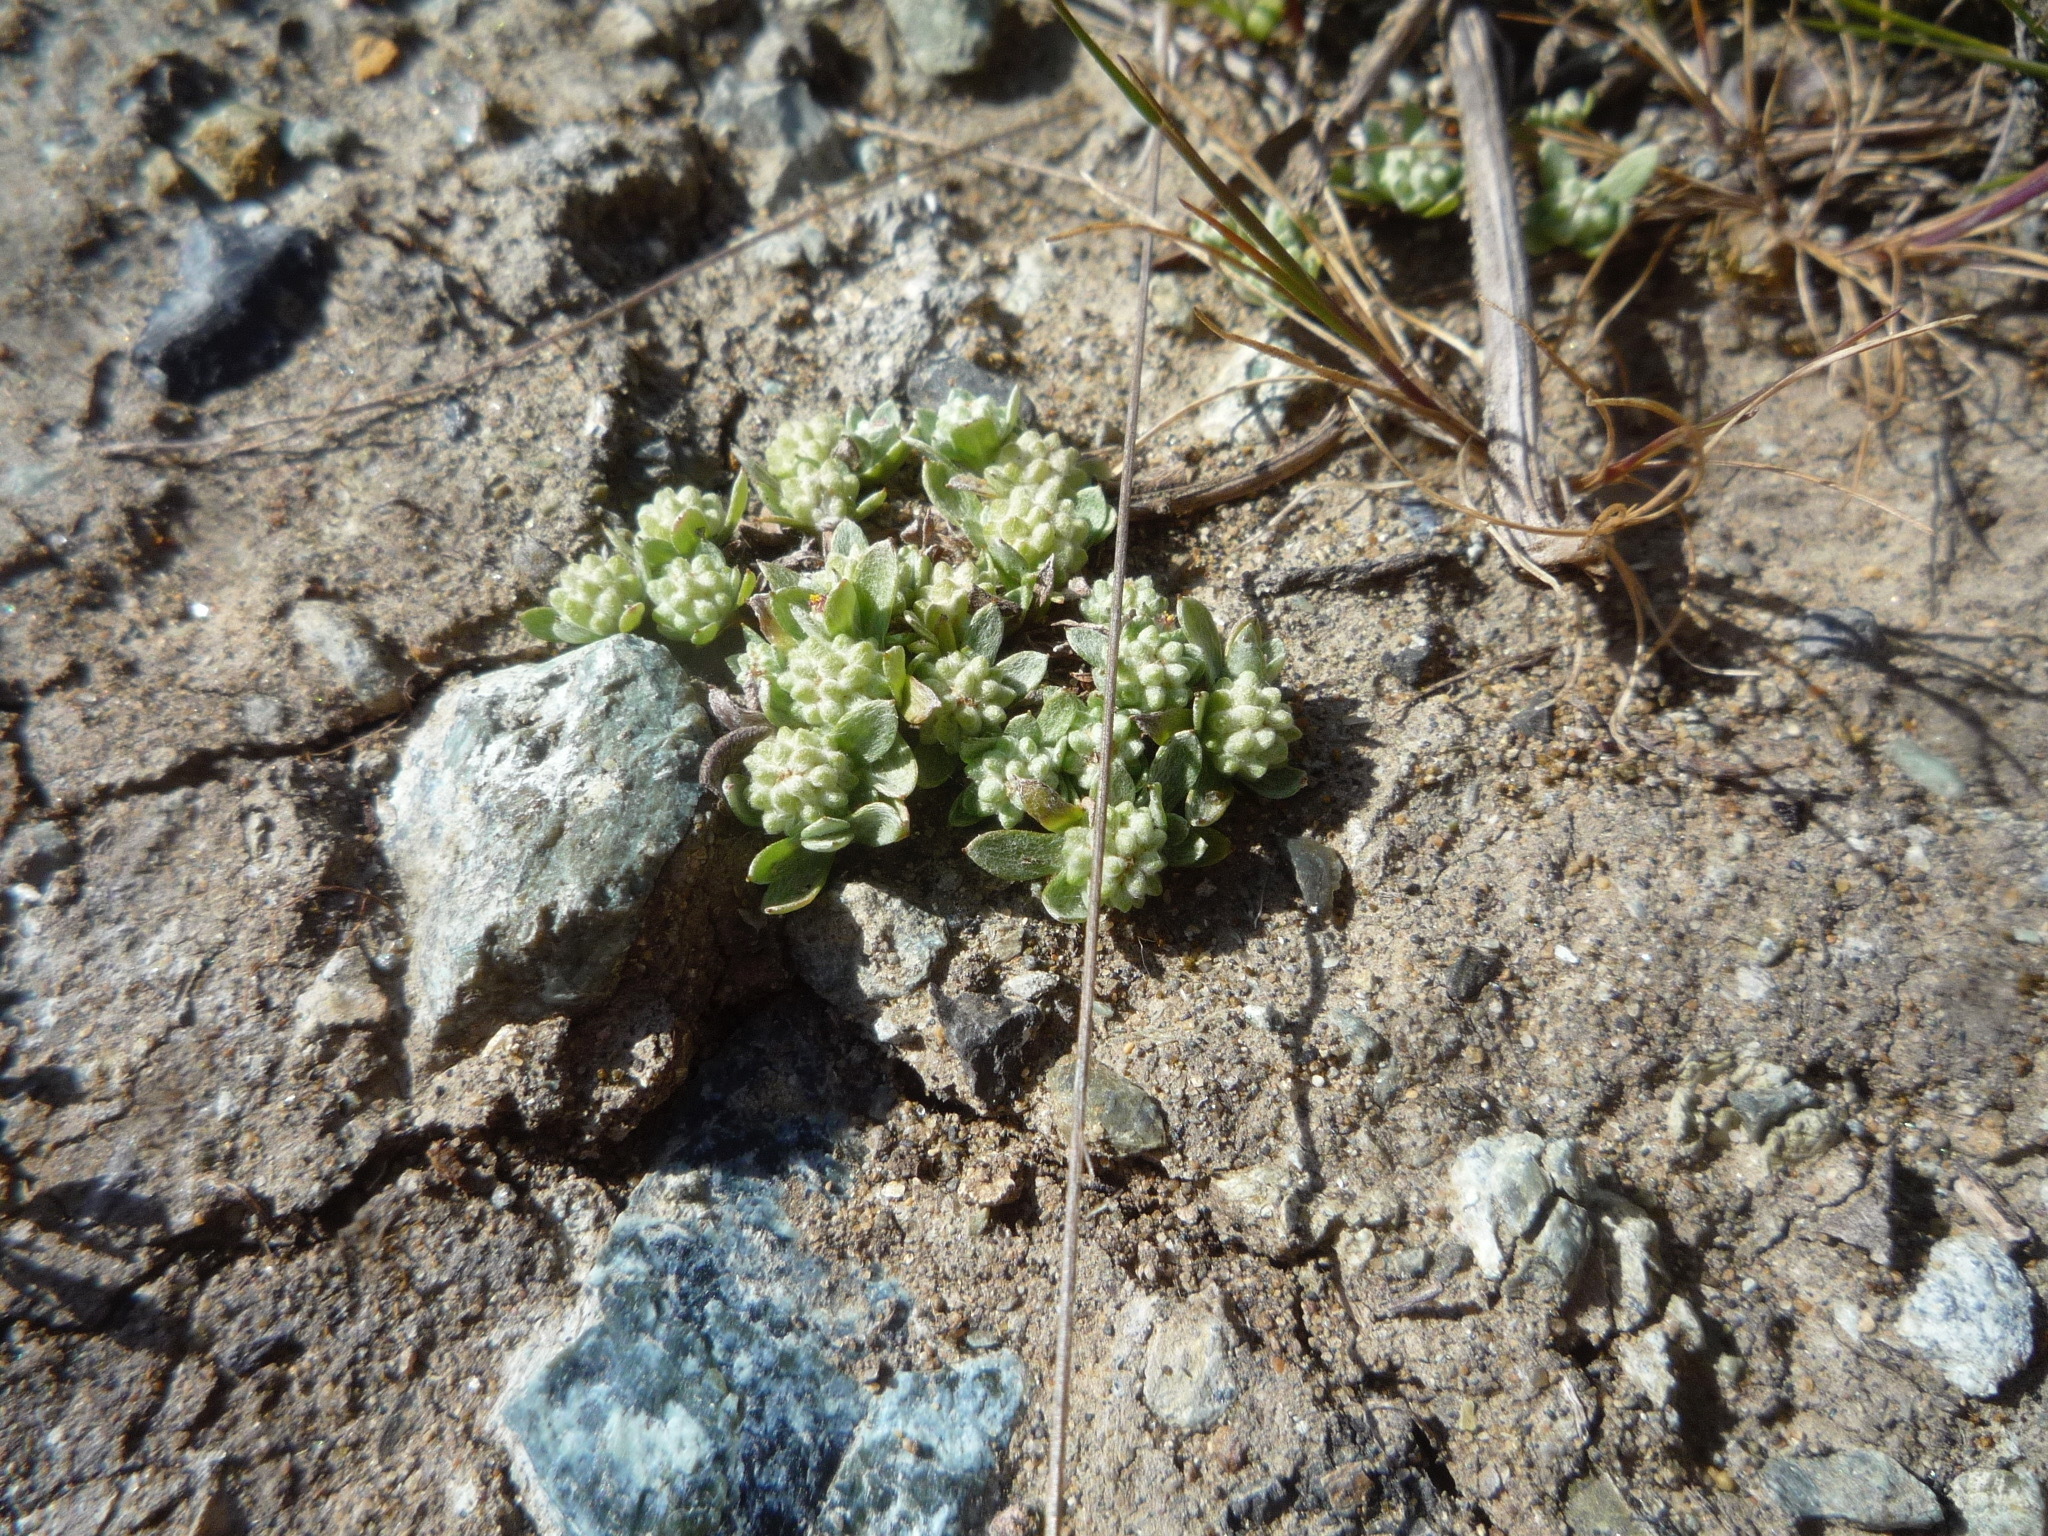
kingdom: Plantae
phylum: Tracheophyta
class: Magnoliopsida
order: Asterales
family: Asteraceae
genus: Psilocarphus
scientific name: Psilocarphus tenellus
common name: Slender woolly-marbles
